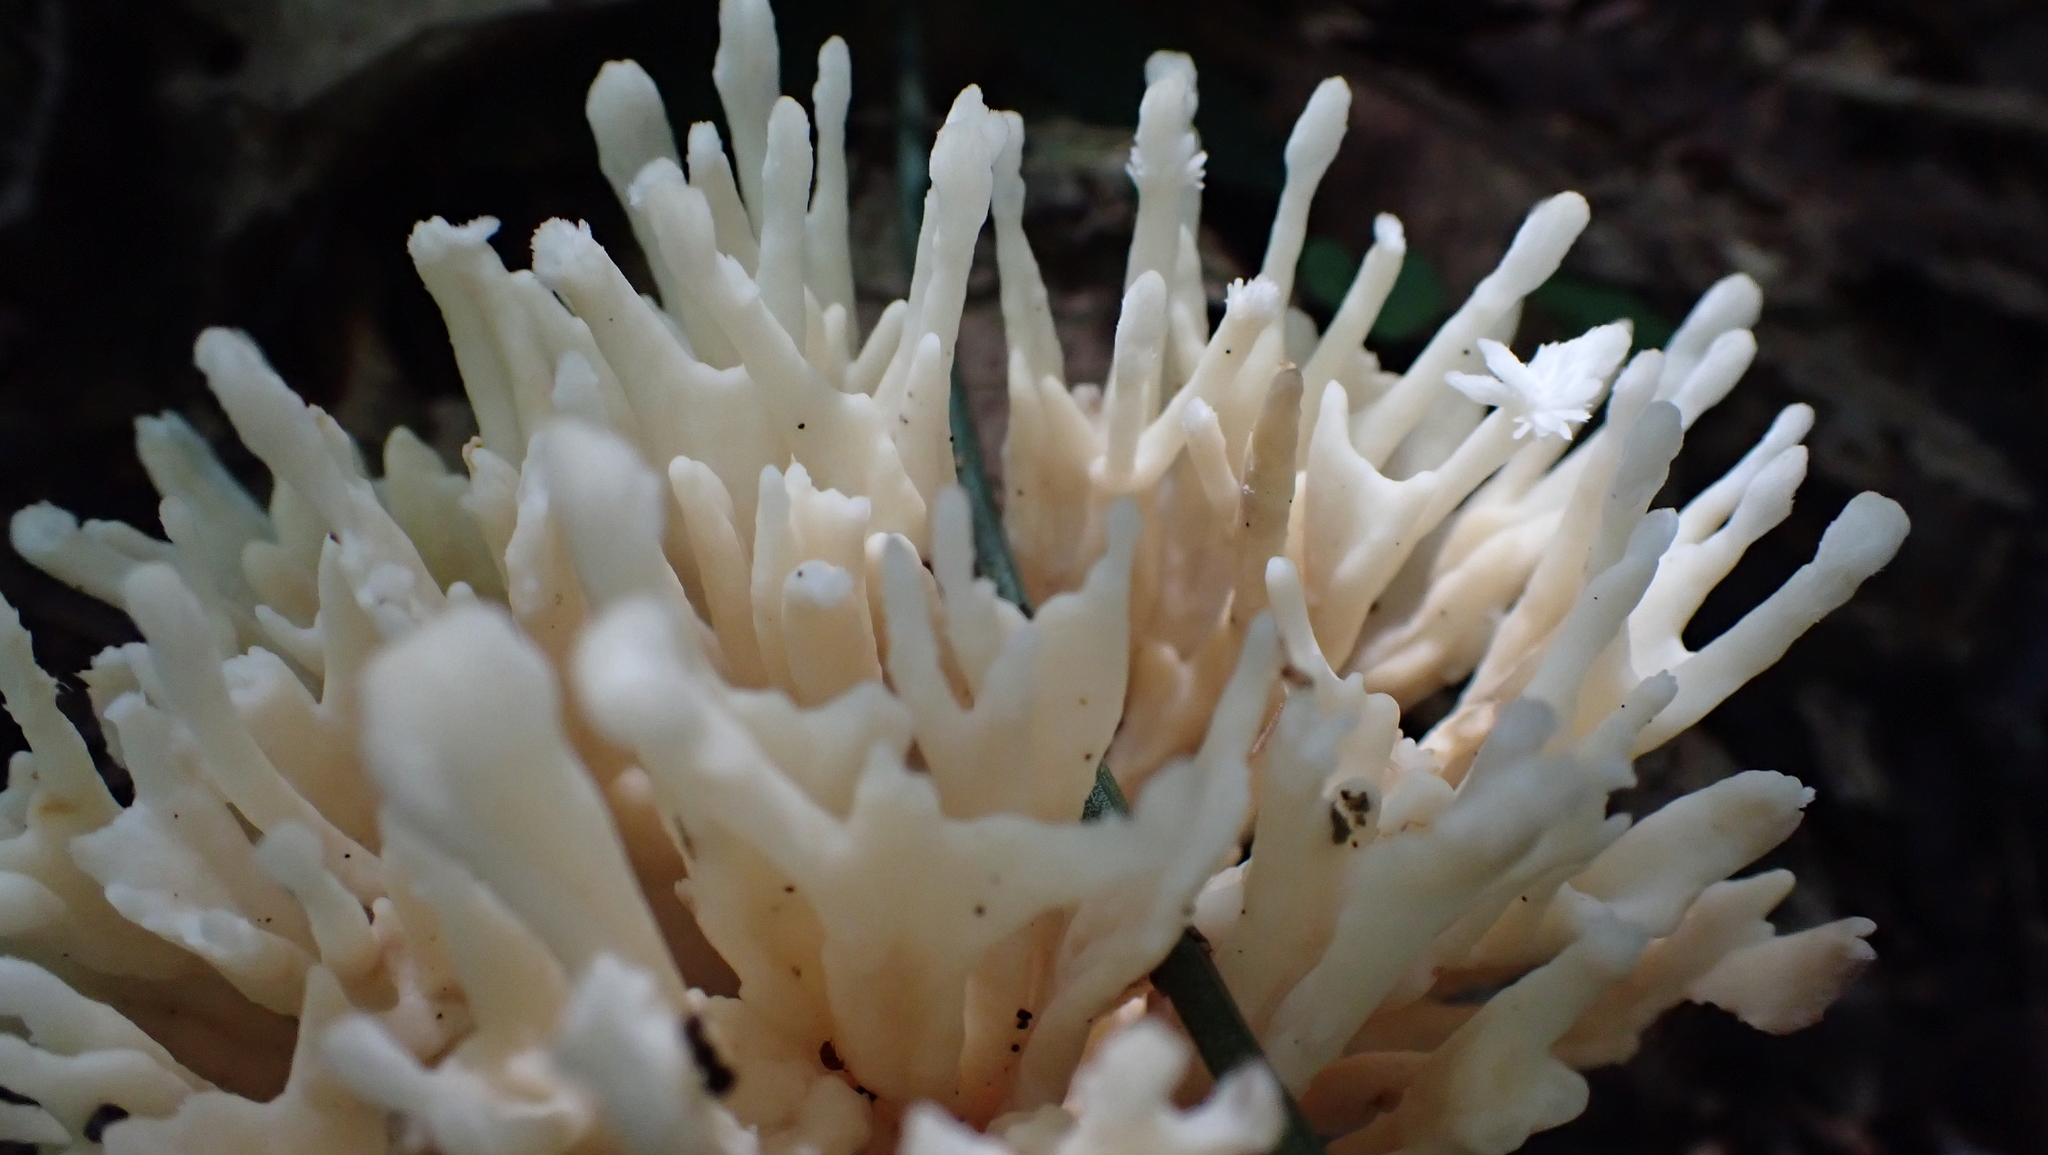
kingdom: Fungi
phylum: Basidiomycota
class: Agaricomycetes
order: Sebacinales
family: Sebacinaceae
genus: Sebacina
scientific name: Sebacina schweinitzii
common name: Jellied false coral fungus
